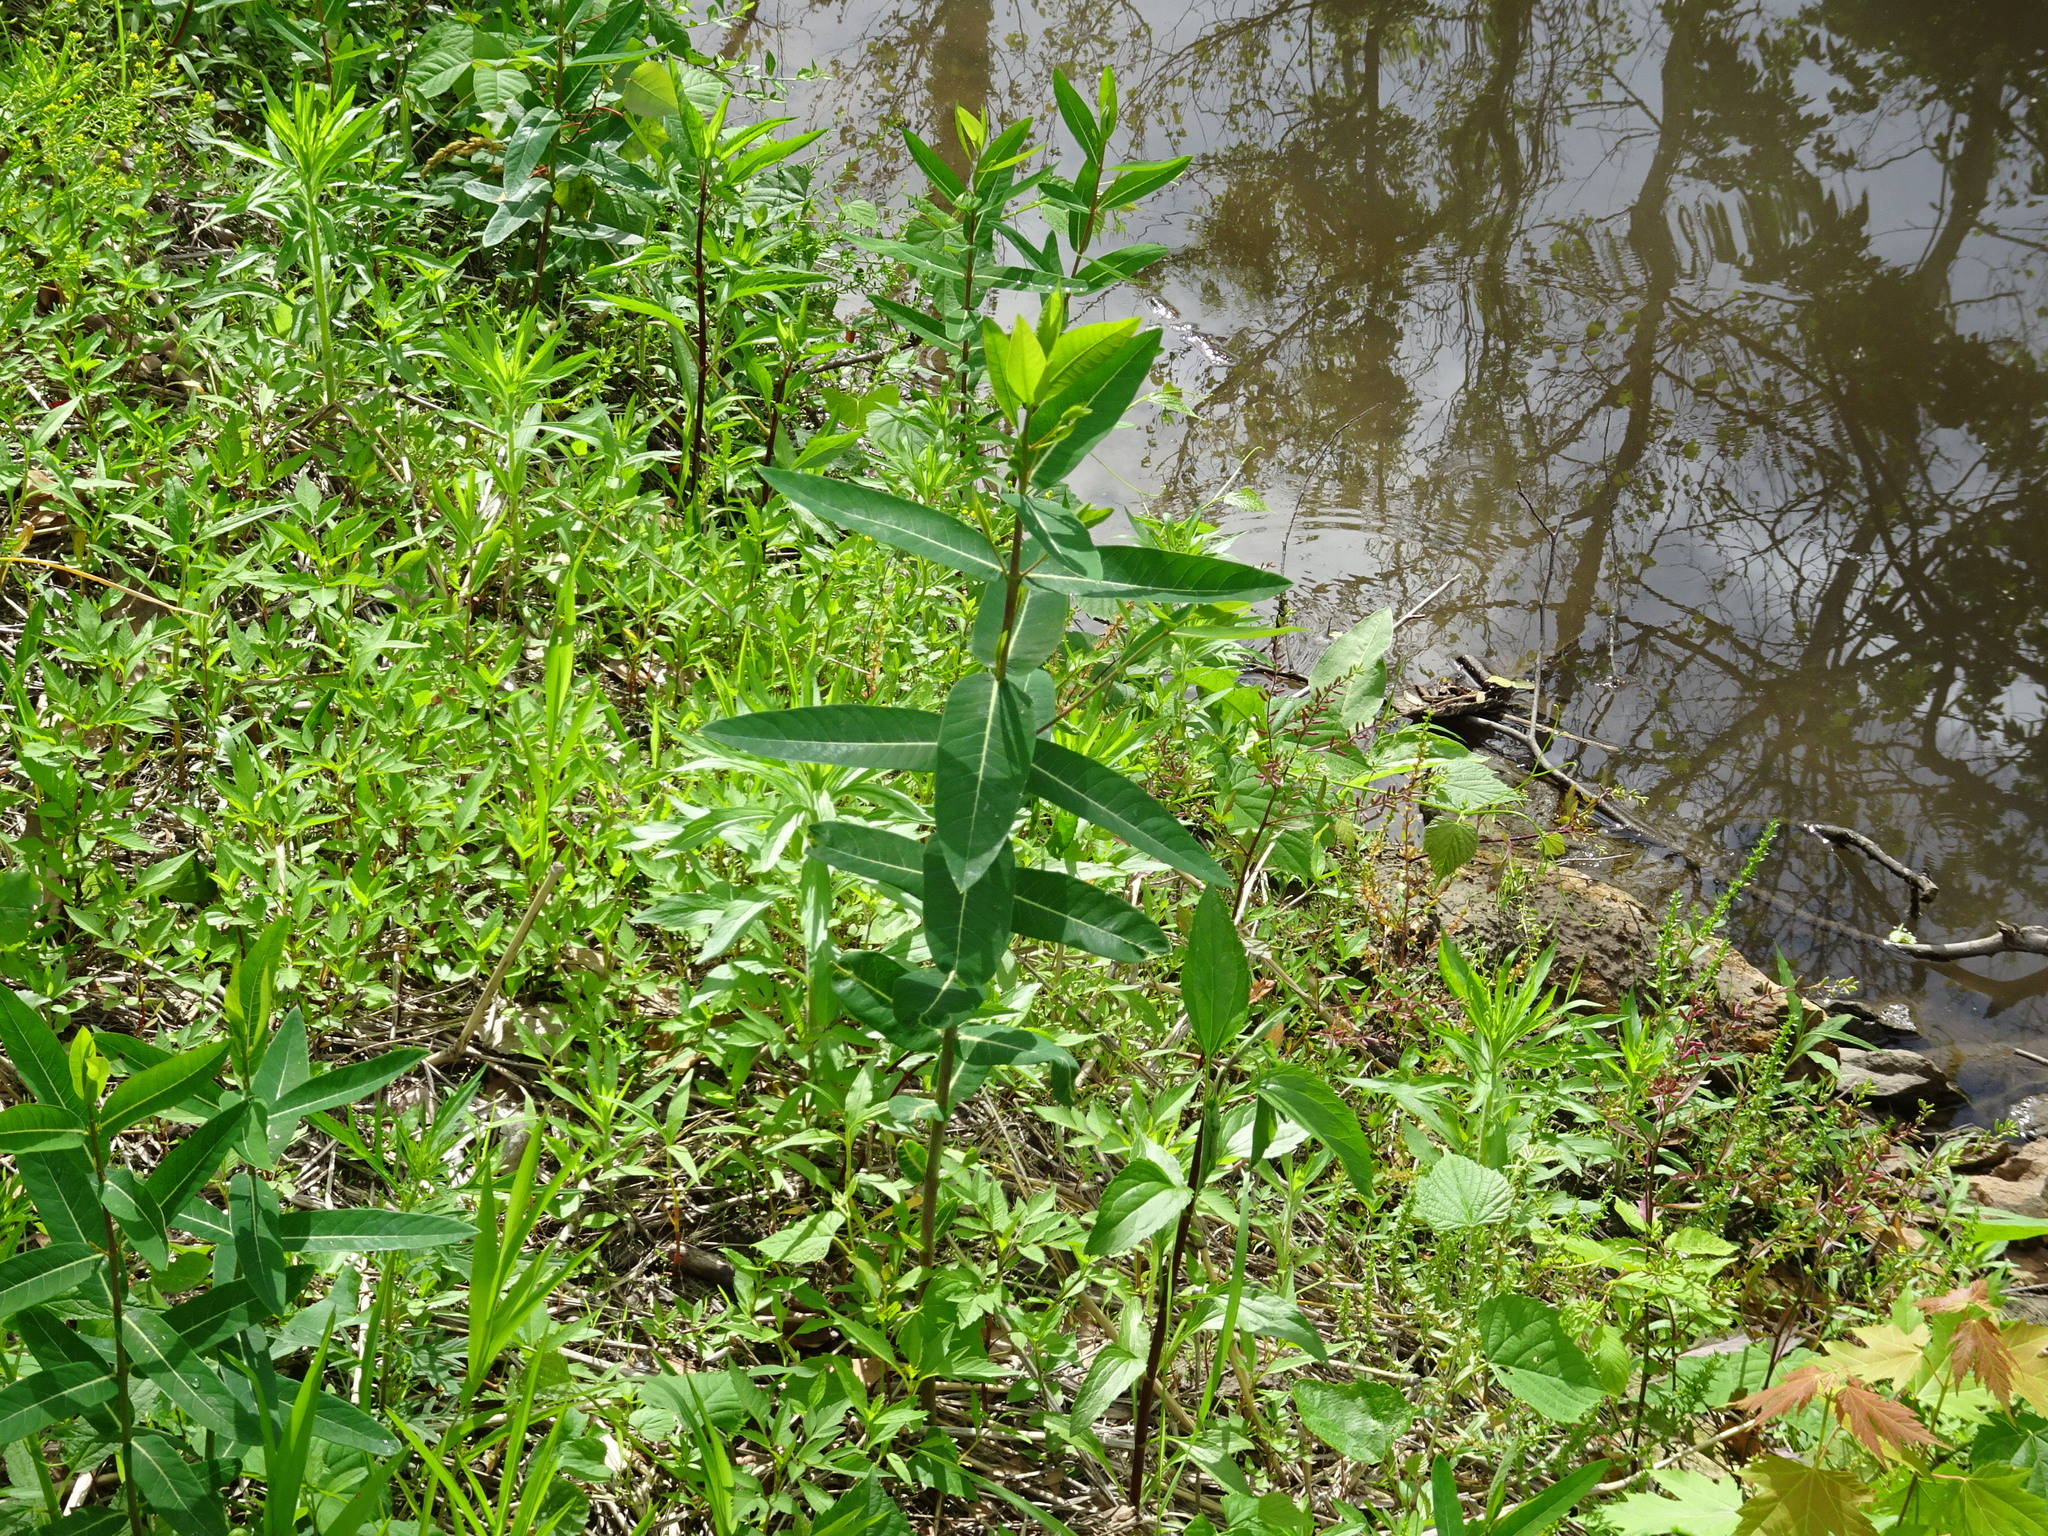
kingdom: Plantae
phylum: Tracheophyta
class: Magnoliopsida
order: Gentianales
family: Apocynaceae
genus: Apocynum
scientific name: Apocynum cannabinum
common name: Hemp dogbane
